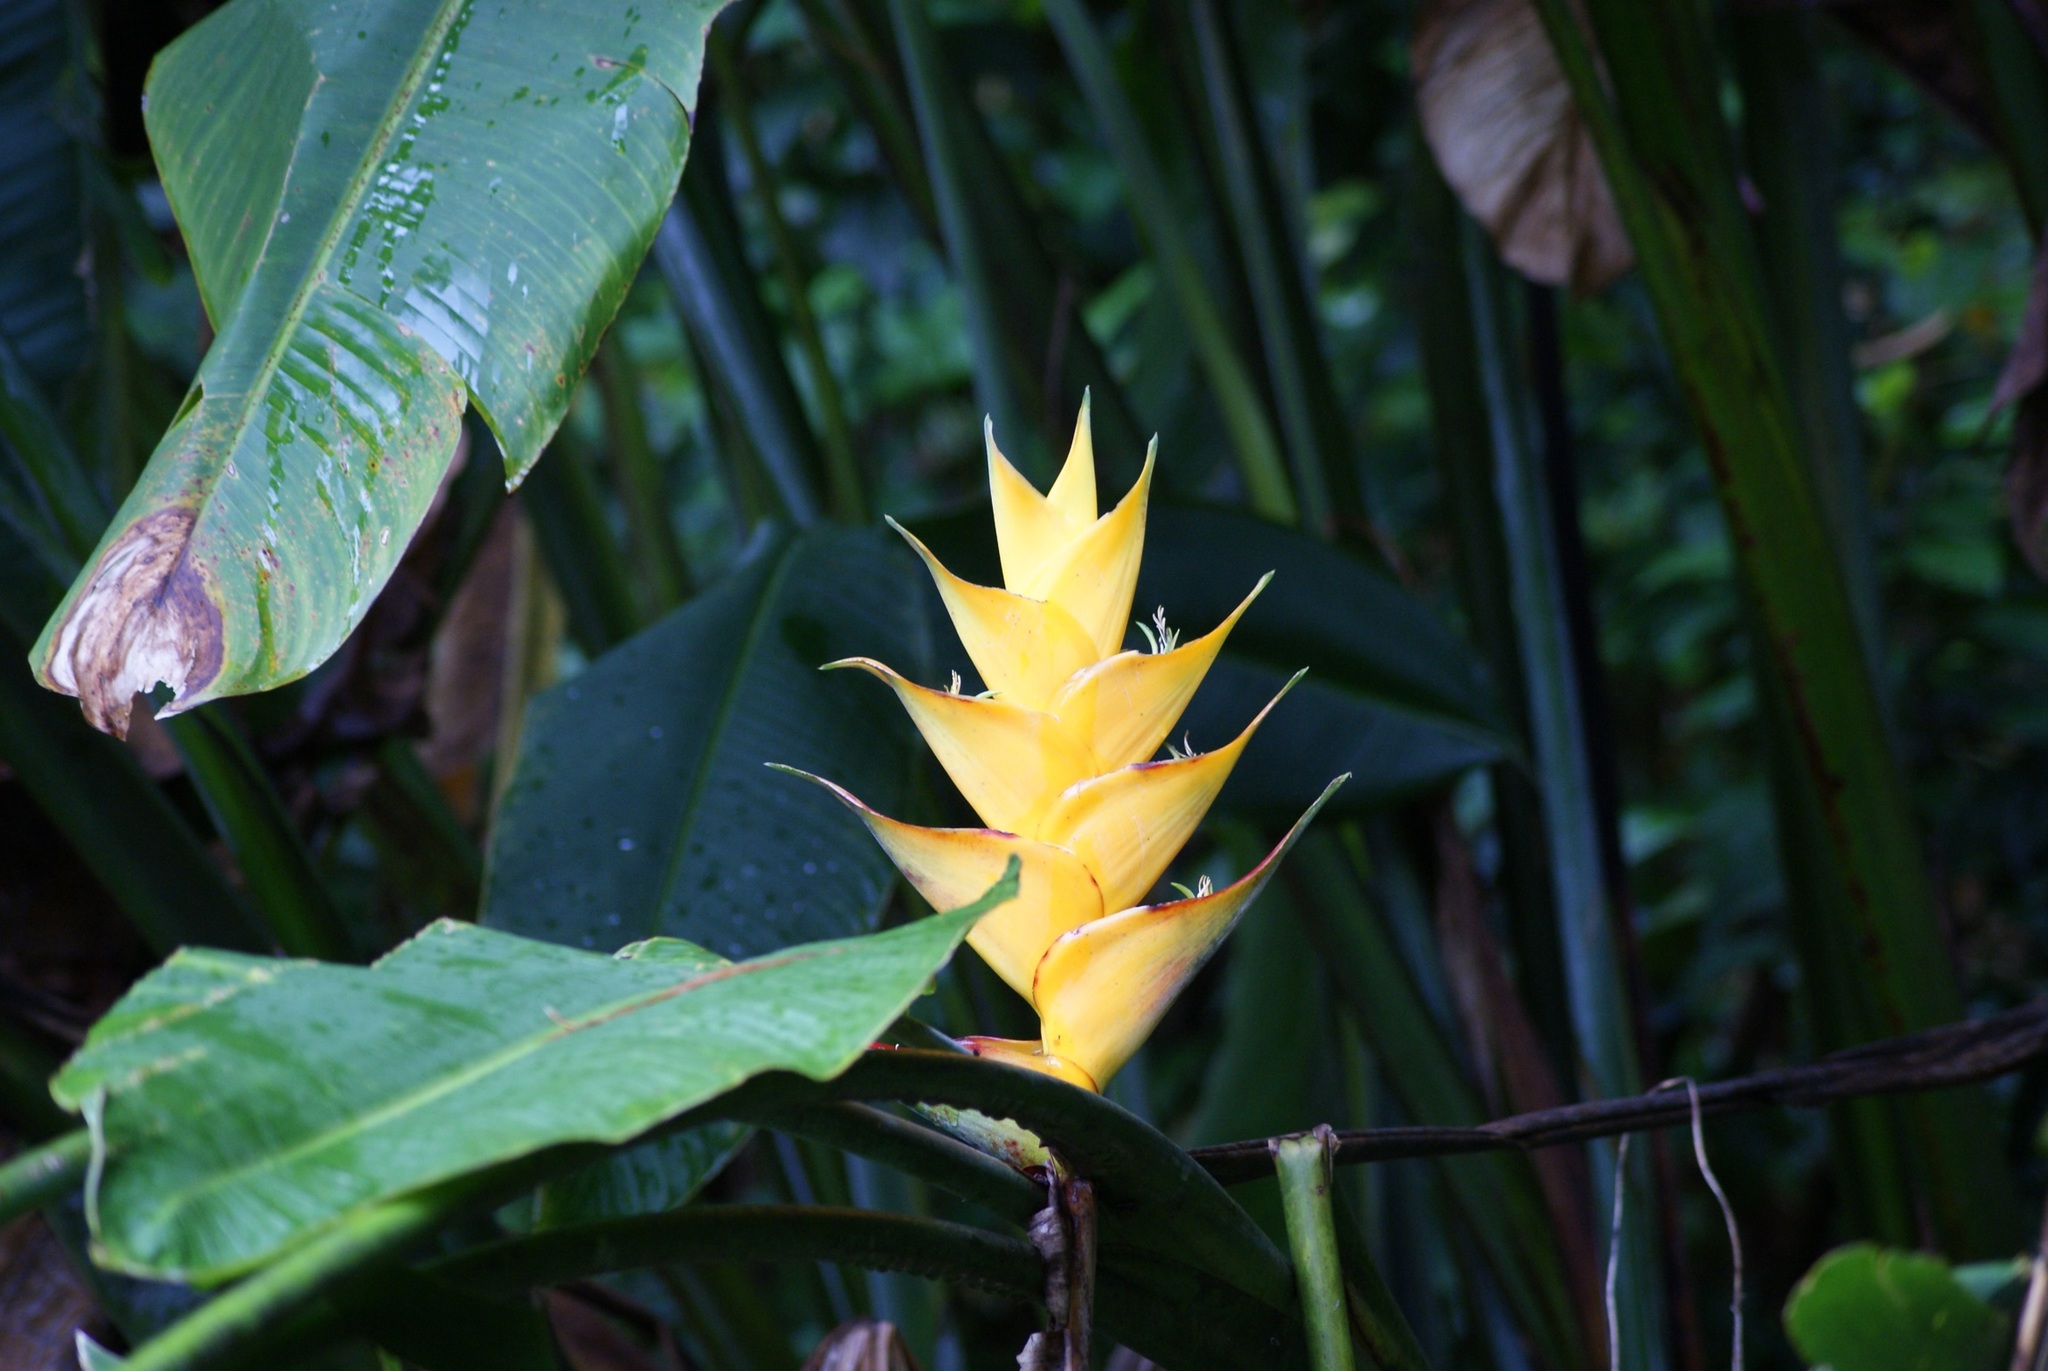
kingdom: Plantae
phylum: Tracheophyta
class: Liliopsida
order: Zingiberales
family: Heliconiaceae
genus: Heliconia
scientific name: Heliconia caribaea
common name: Wild plantain
